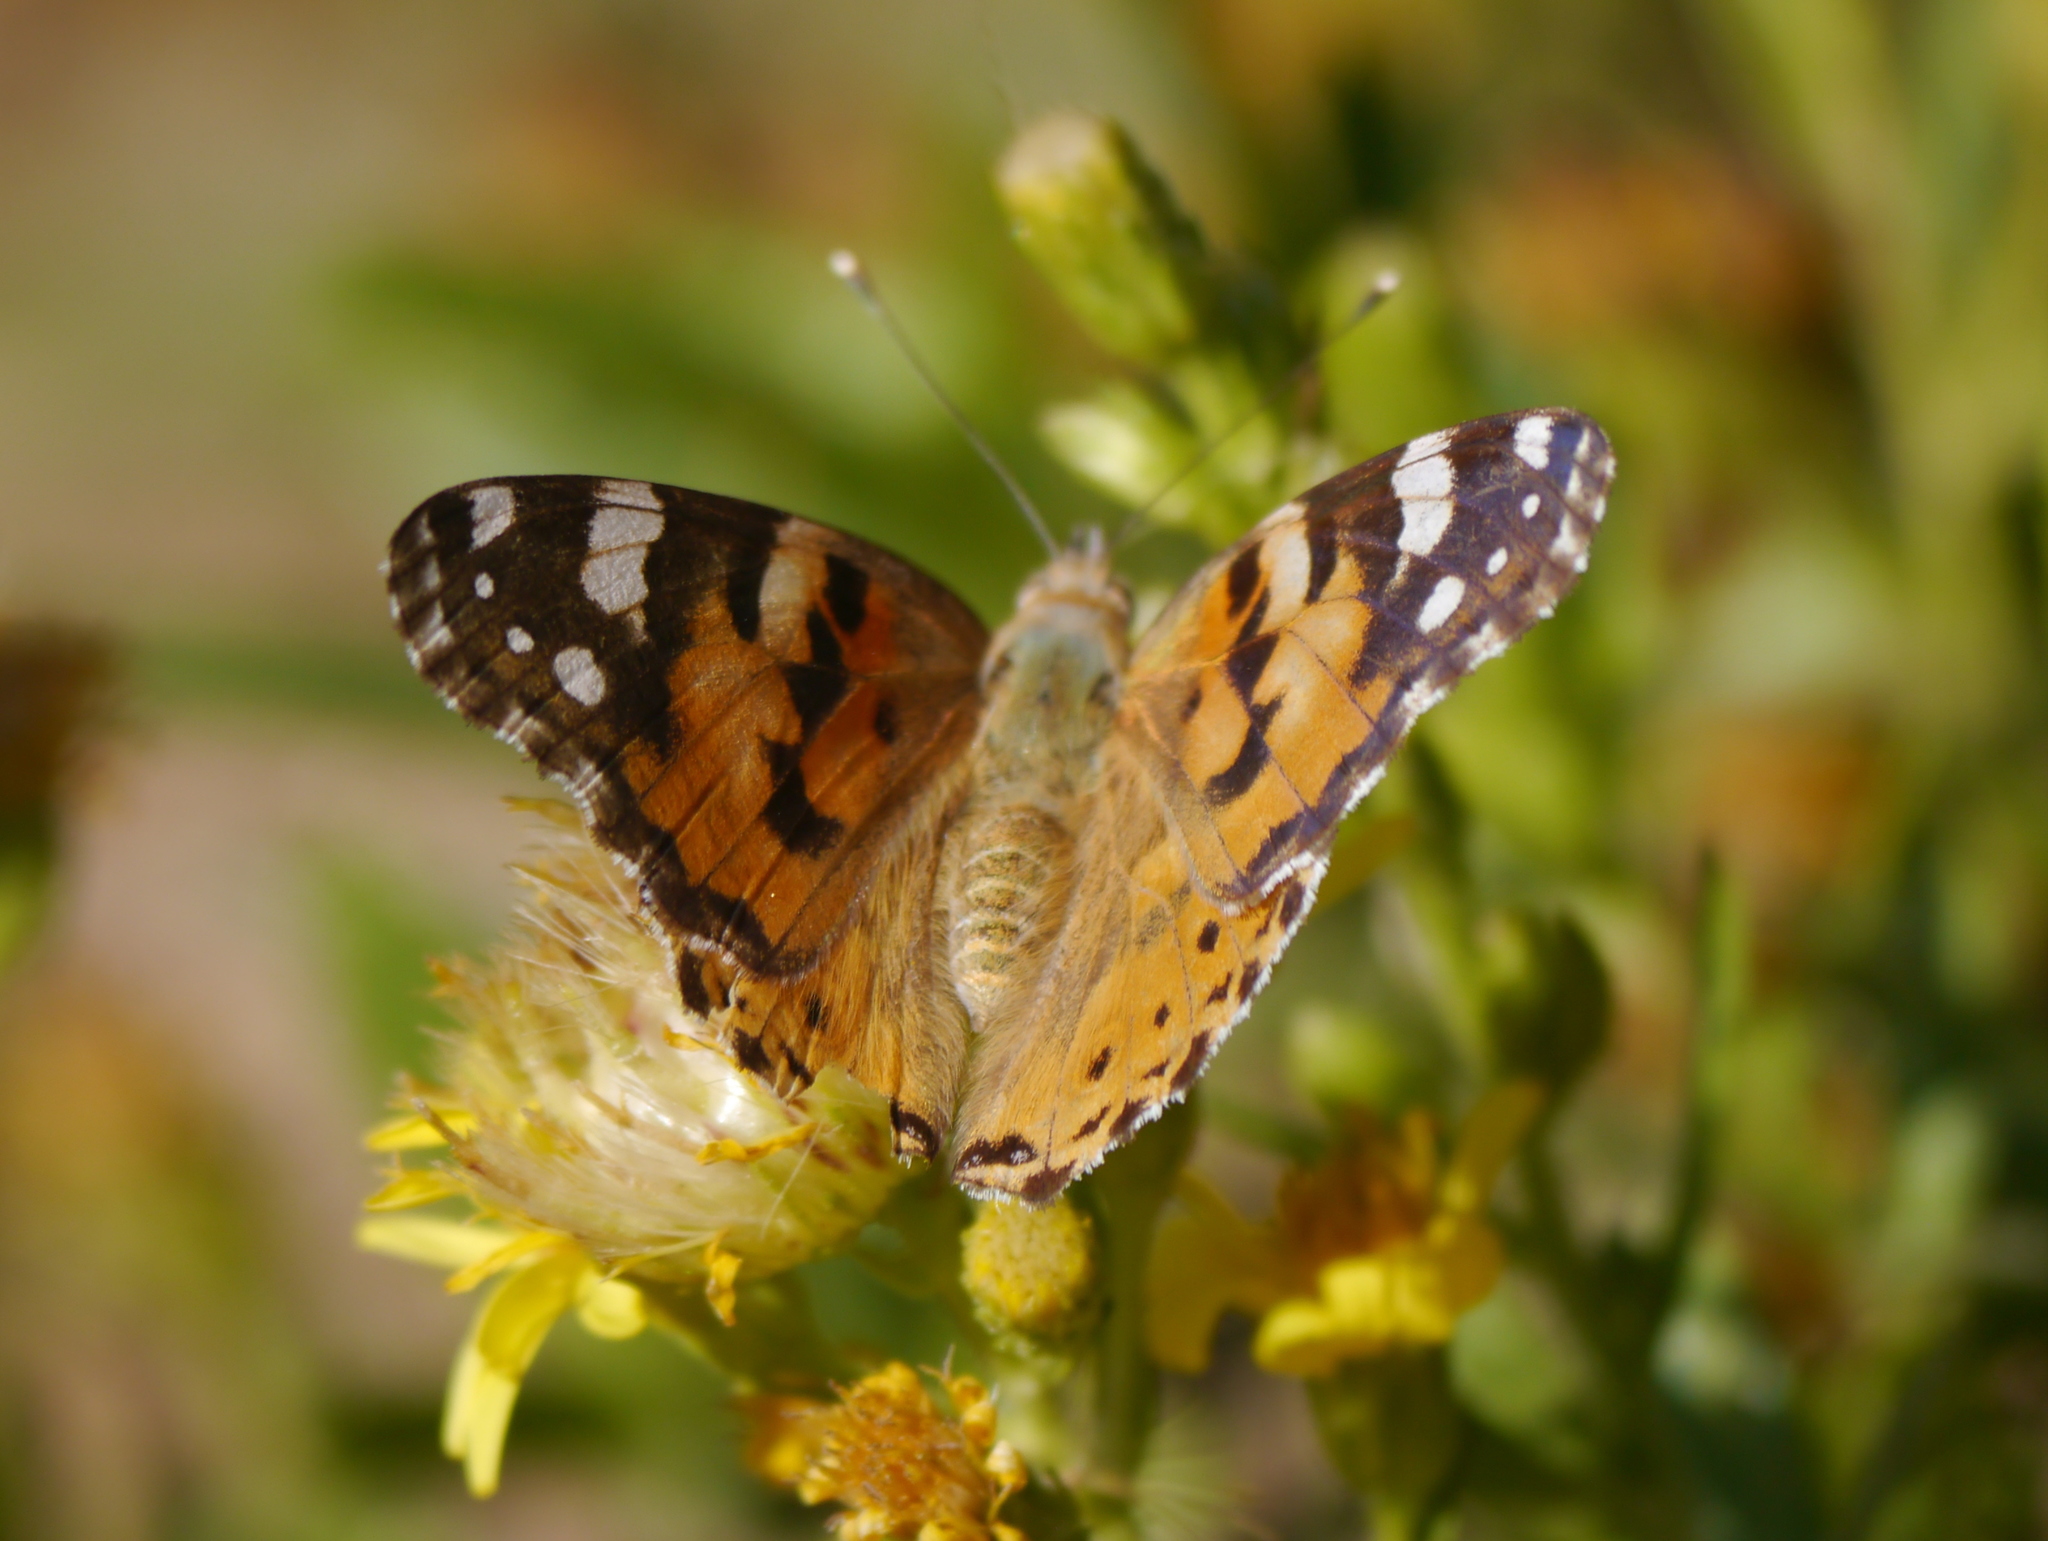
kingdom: Animalia
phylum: Arthropoda
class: Insecta
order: Lepidoptera
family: Nymphalidae
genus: Vanessa
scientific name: Vanessa cardui
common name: Painted lady
